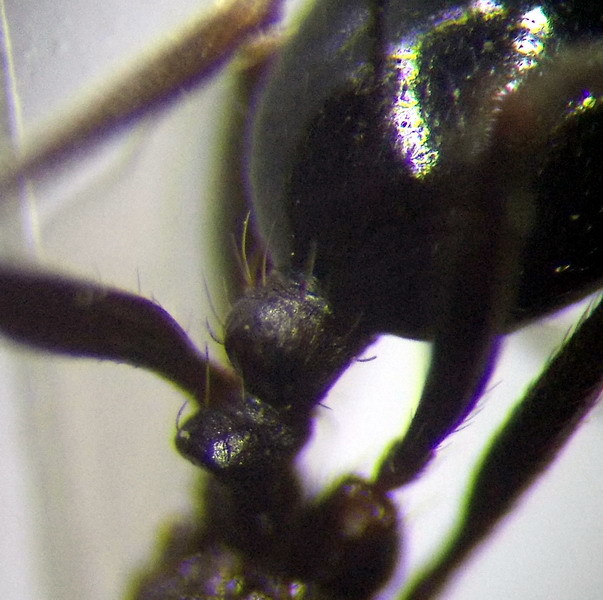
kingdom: Animalia
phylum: Arthropoda
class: Insecta
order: Hymenoptera
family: Formicidae
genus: Messor
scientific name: Messor denticulatus
